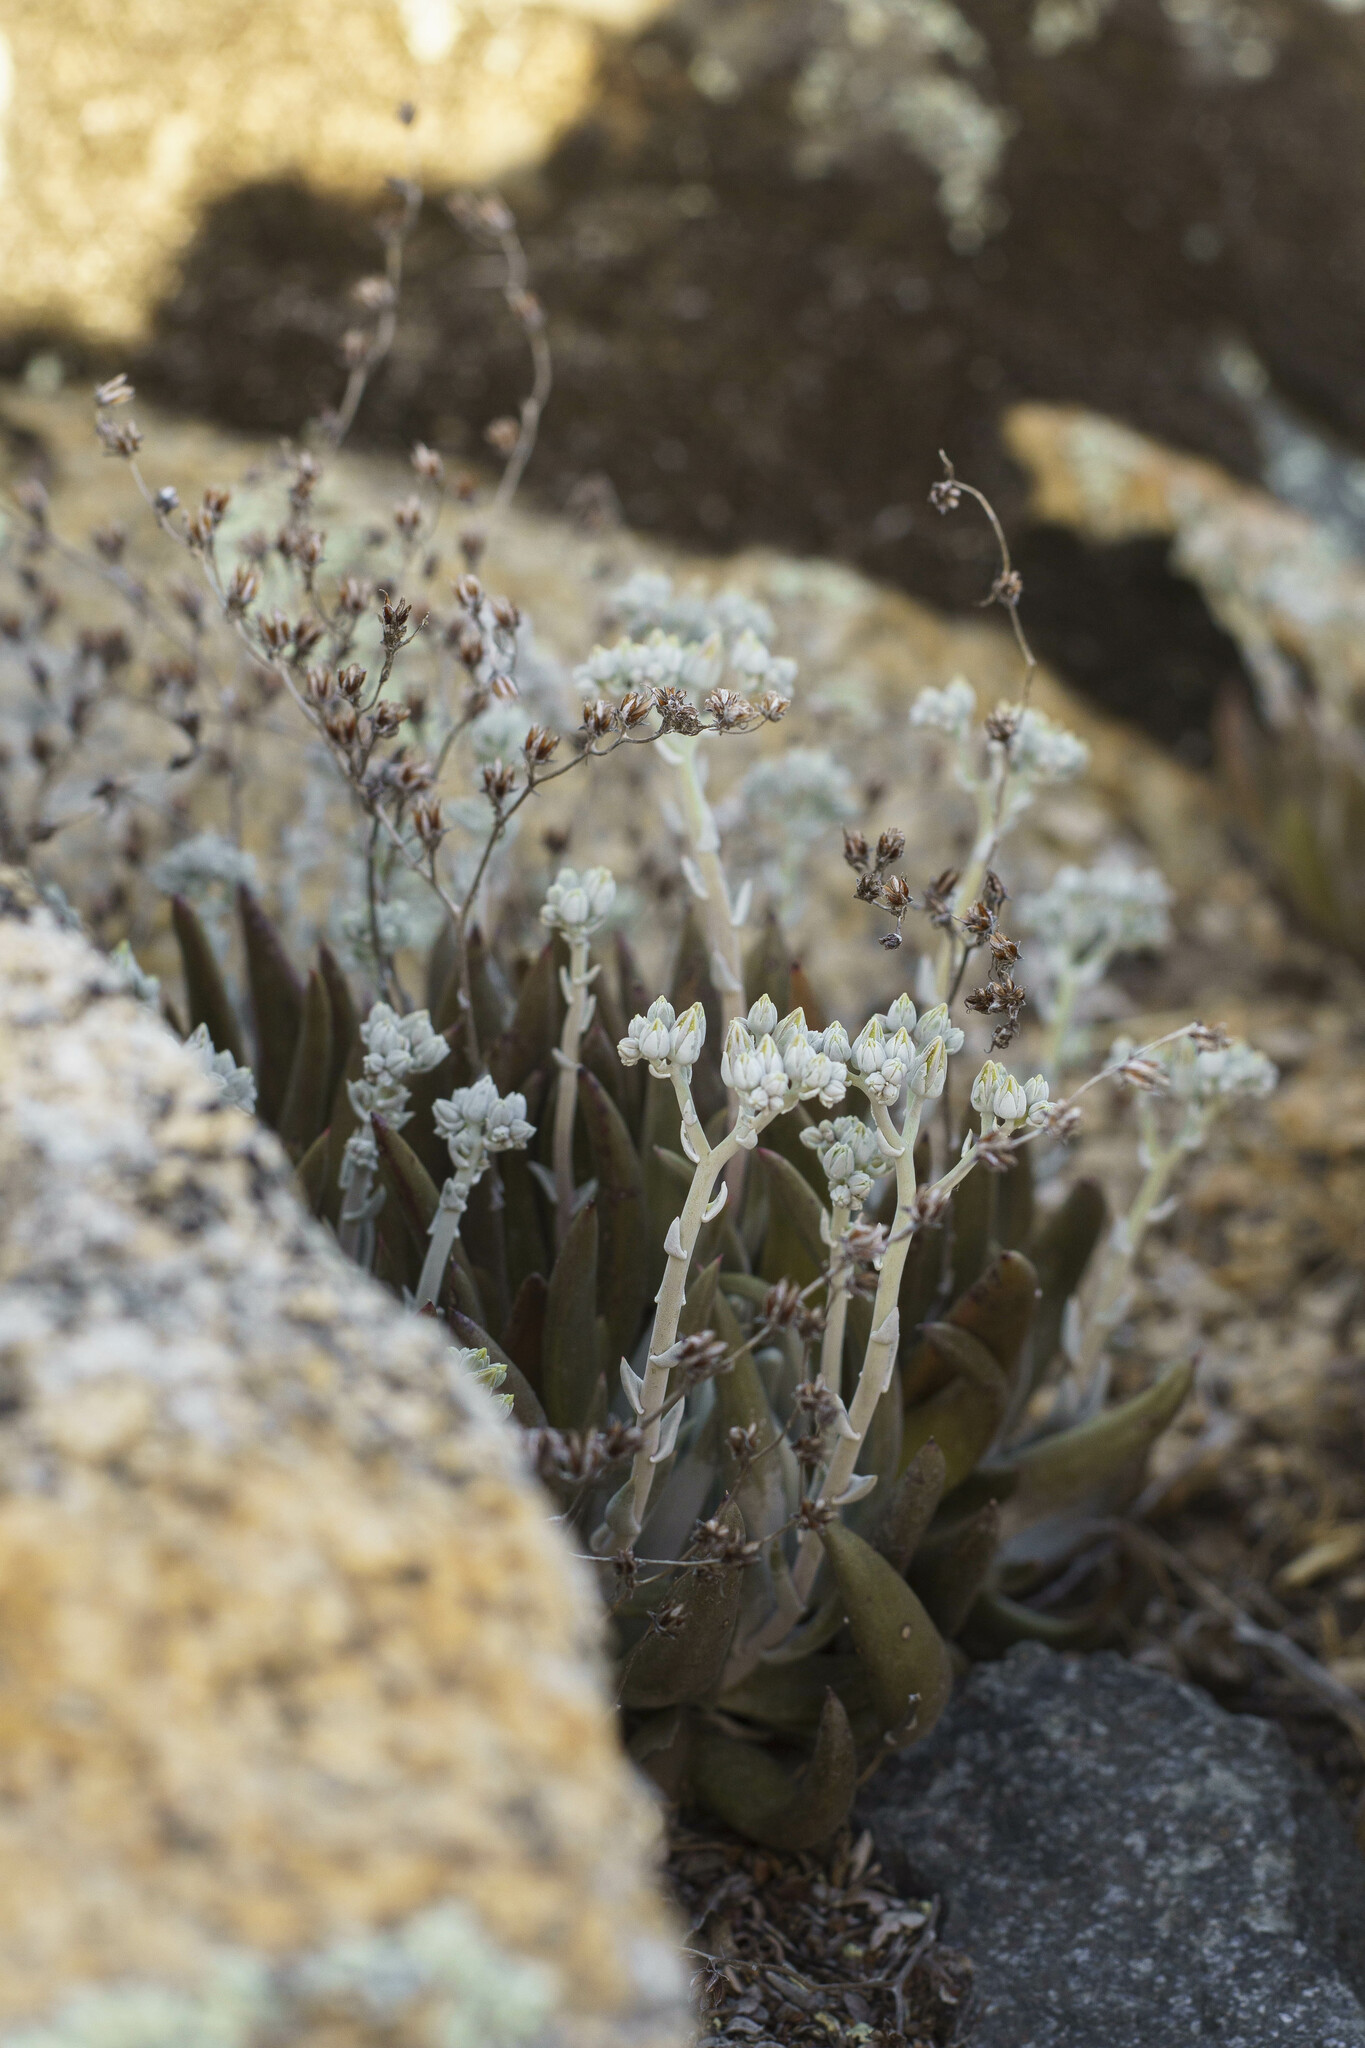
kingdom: Plantae
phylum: Tracheophyta
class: Magnoliopsida
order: Saxifragales
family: Crassulaceae
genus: Dudleya
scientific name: Dudleya abramsii
